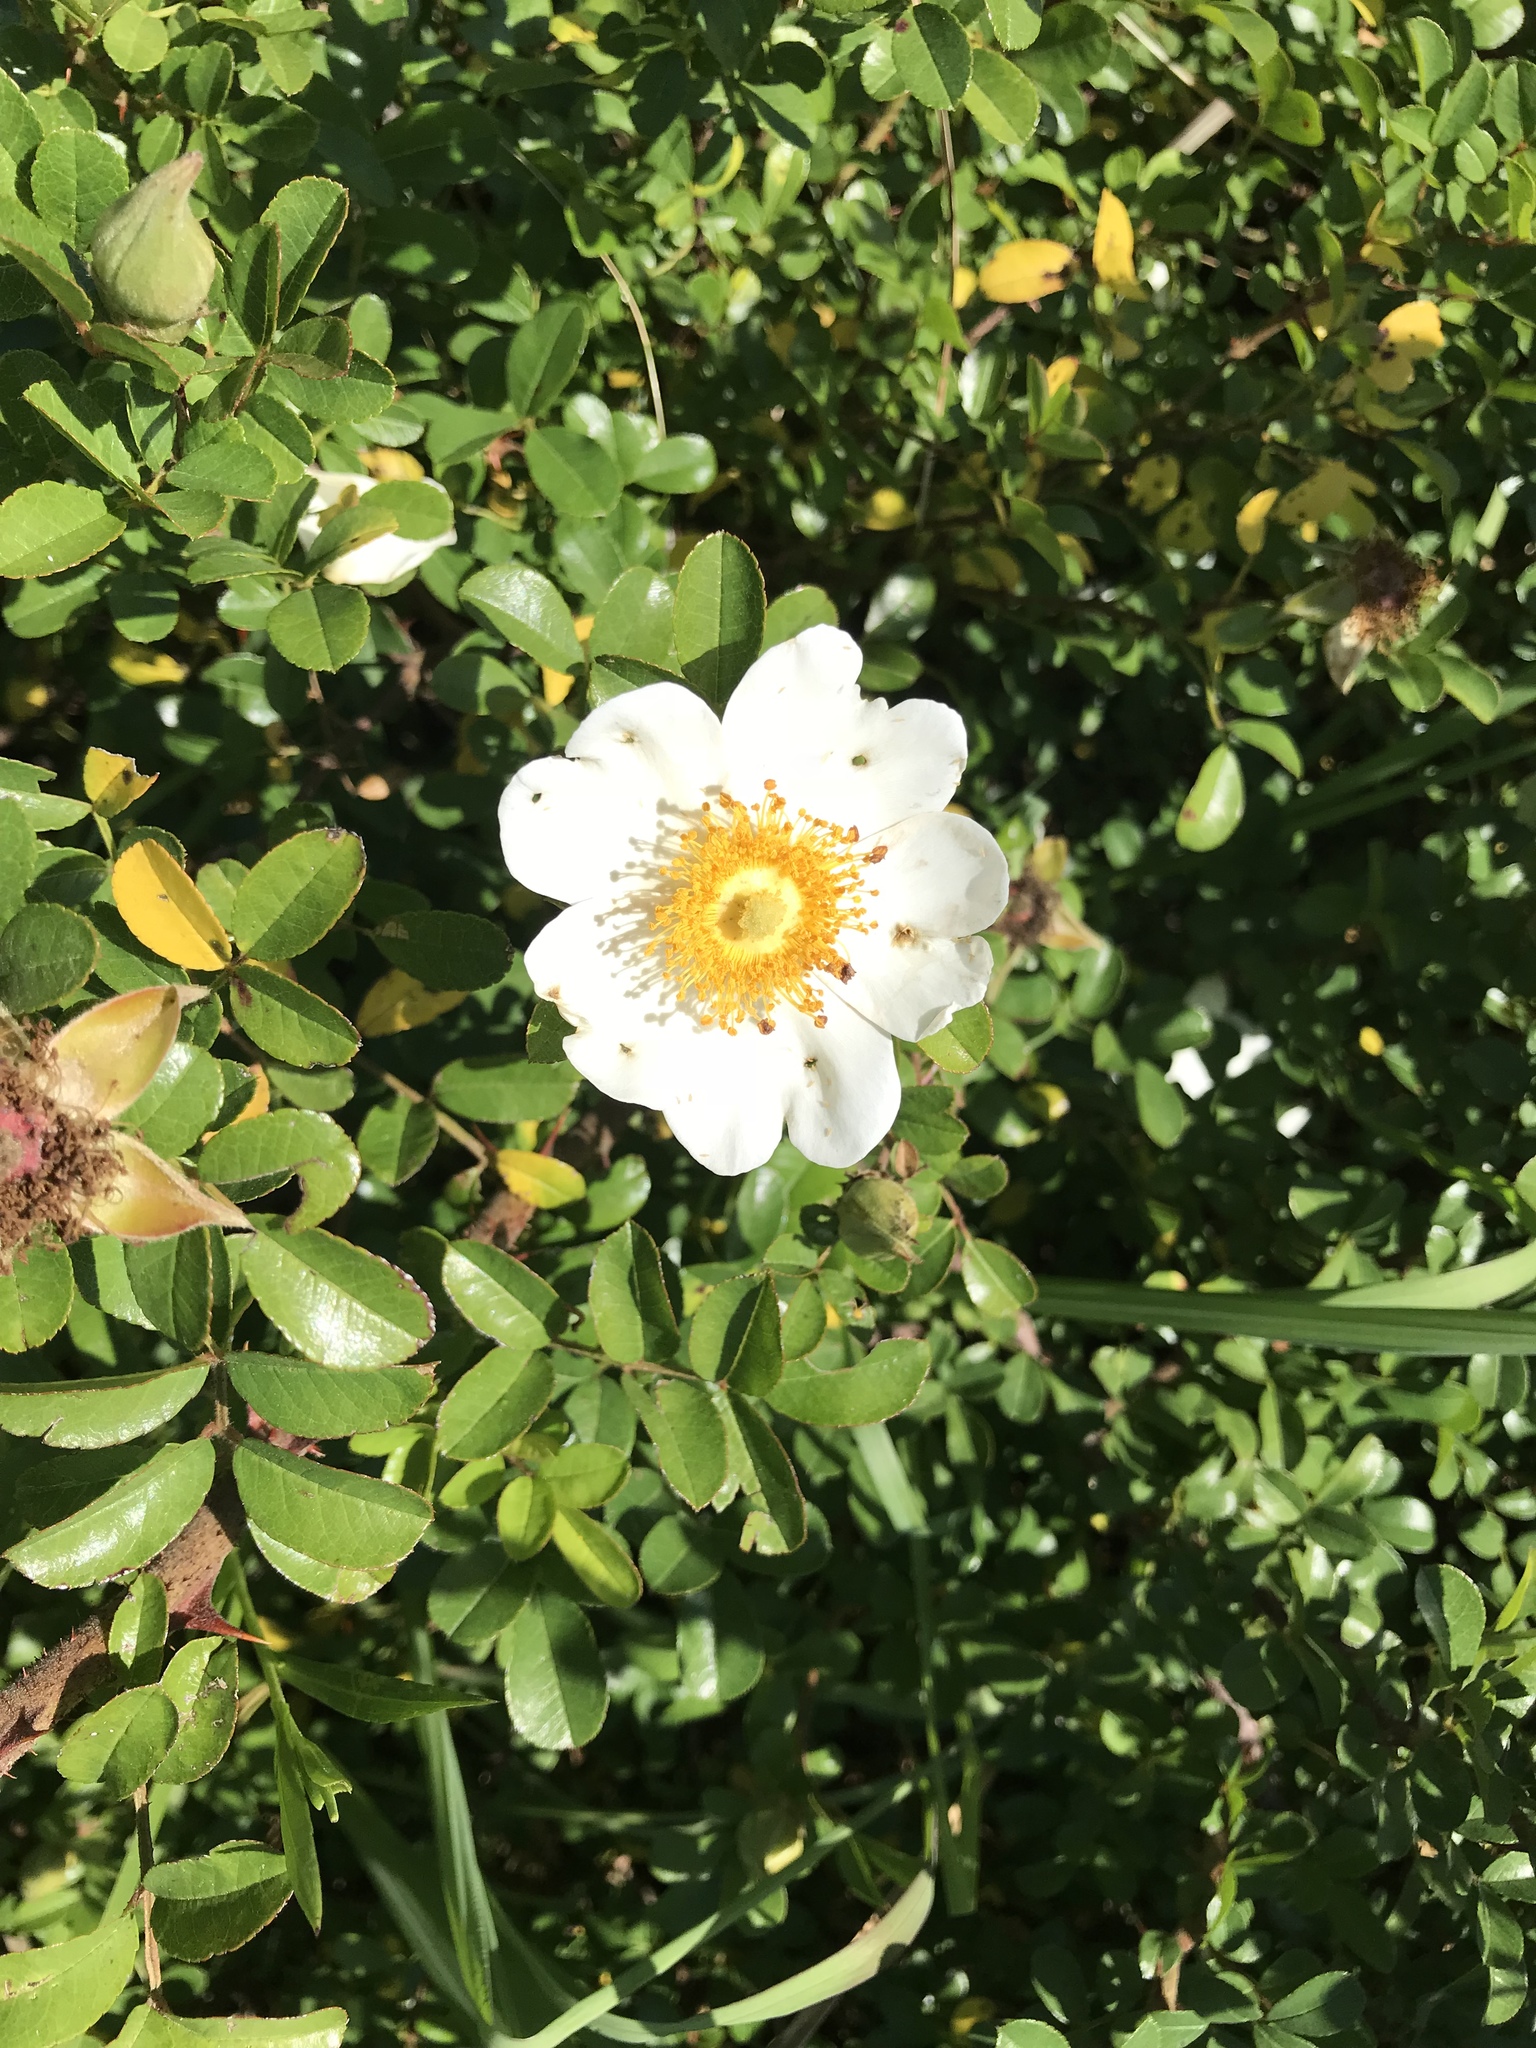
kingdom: Plantae
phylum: Tracheophyta
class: Magnoliopsida
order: Rosales
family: Rosaceae
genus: Rosa
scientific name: Rosa bracteata
